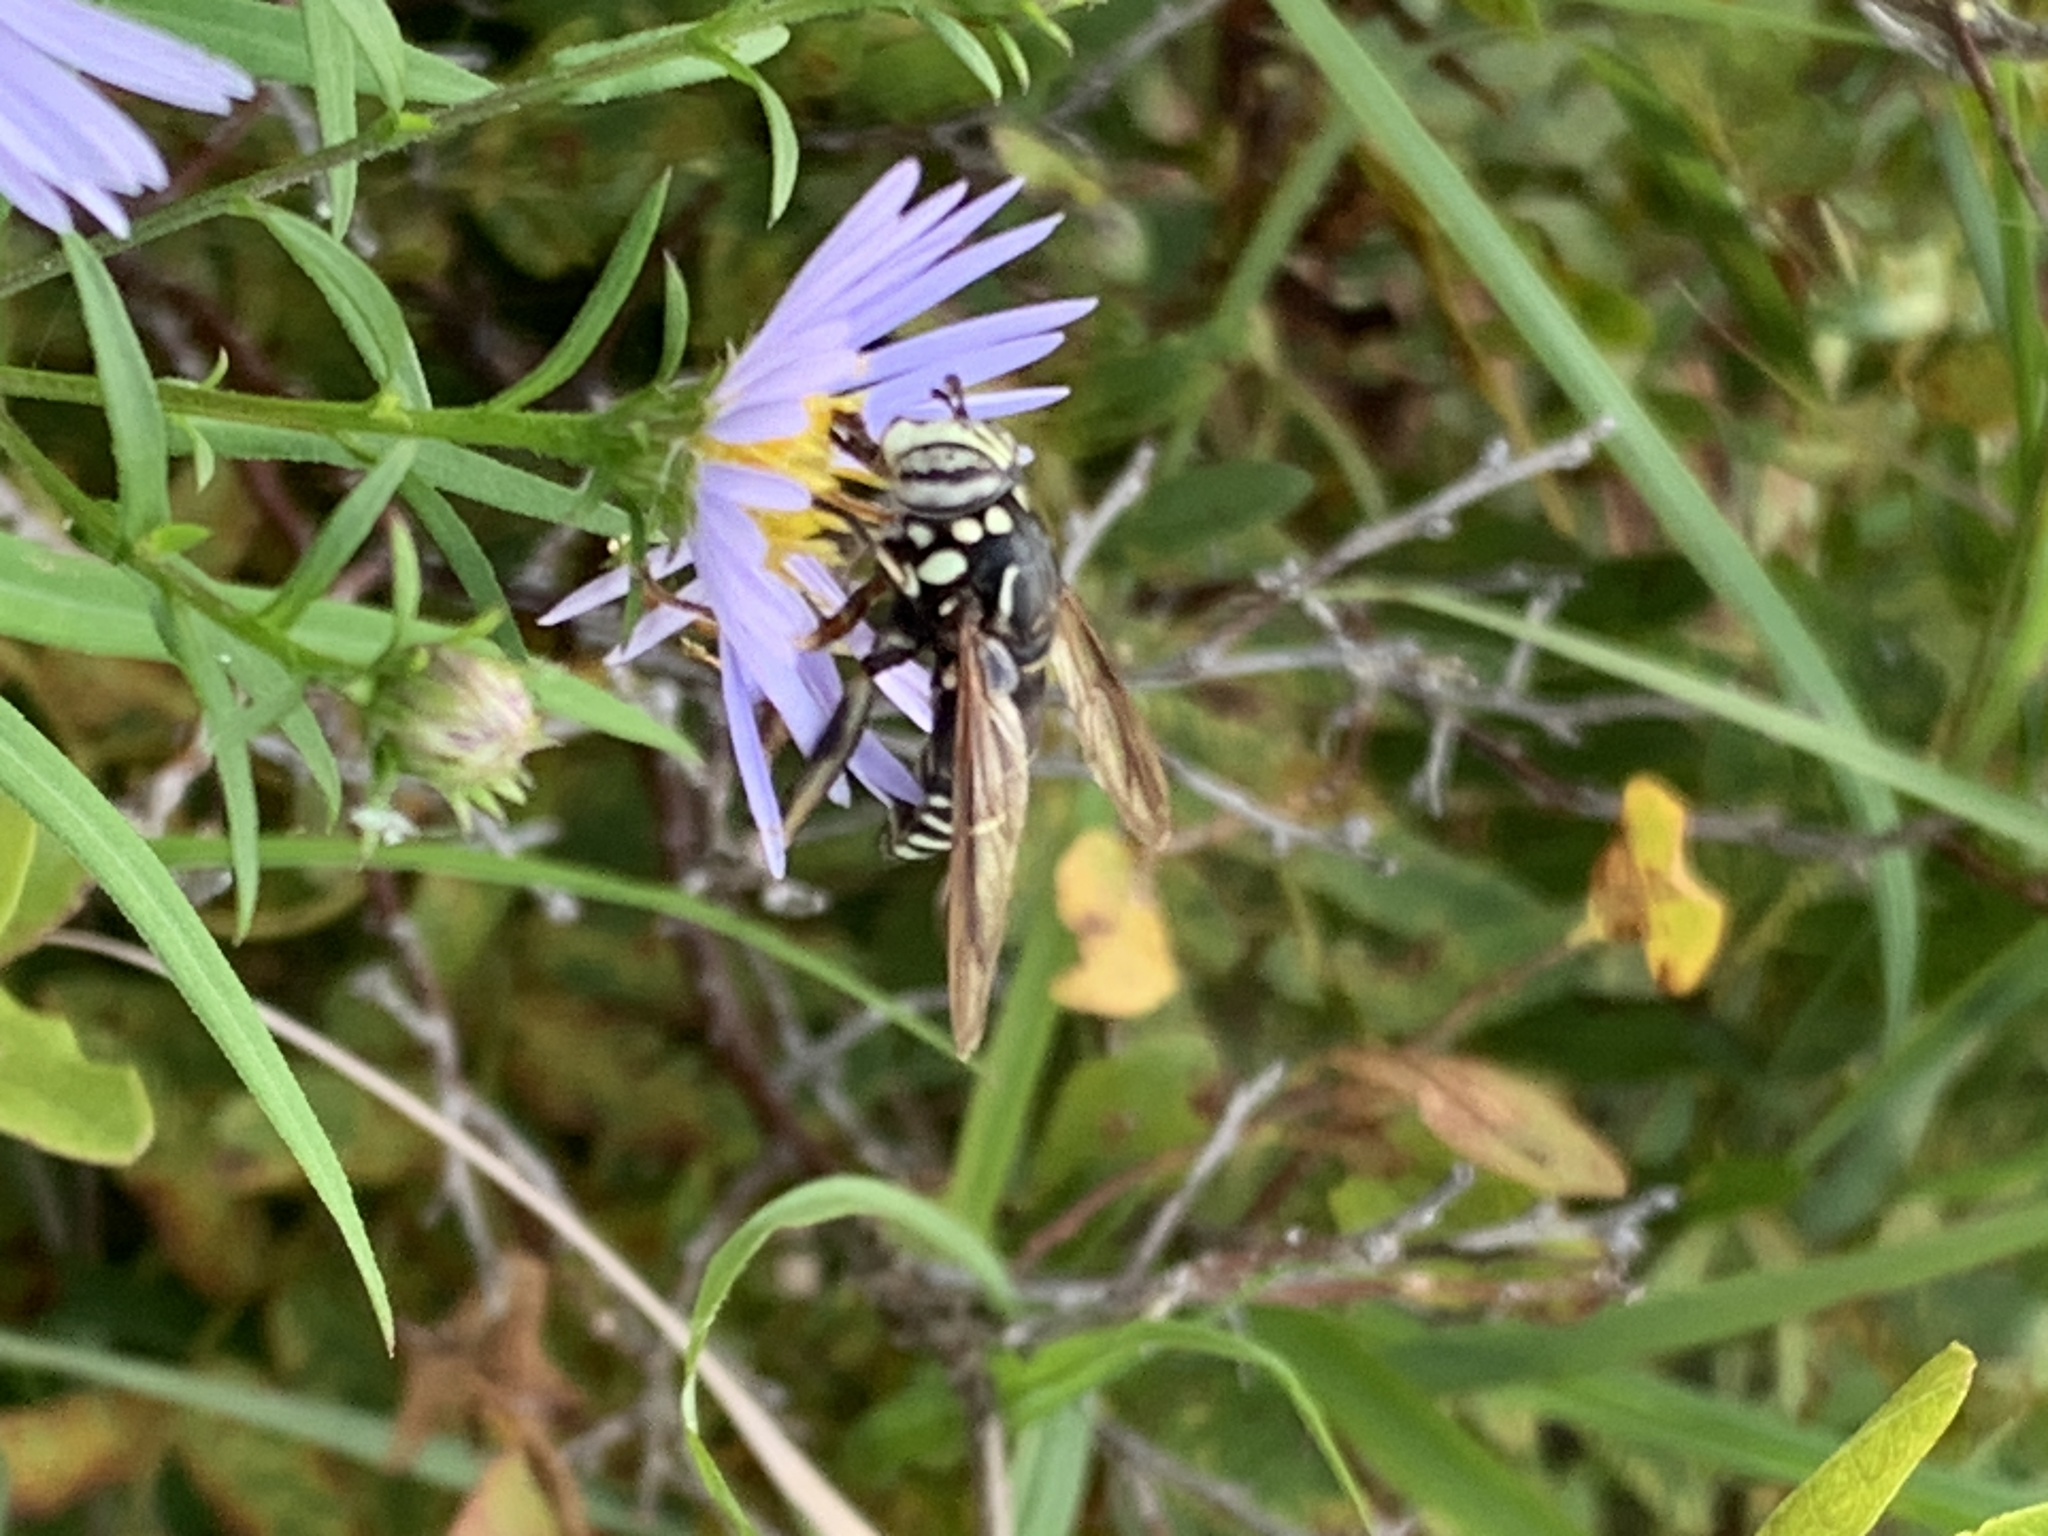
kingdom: Animalia
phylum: Arthropoda
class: Insecta
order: Diptera
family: Syrphidae
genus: Spilomyia
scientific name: Spilomyia fusca
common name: Bald-faced hornet fly
